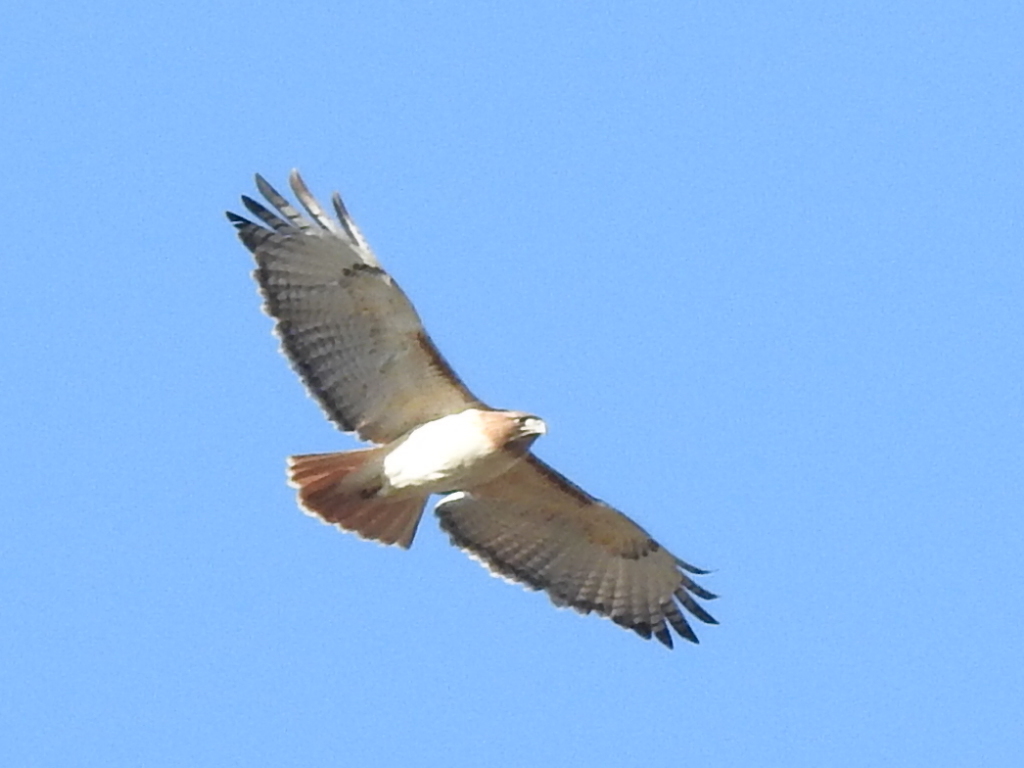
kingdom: Animalia
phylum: Chordata
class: Aves
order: Accipitriformes
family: Accipitridae
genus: Buteo
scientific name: Buteo jamaicensis
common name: Red-tailed hawk
